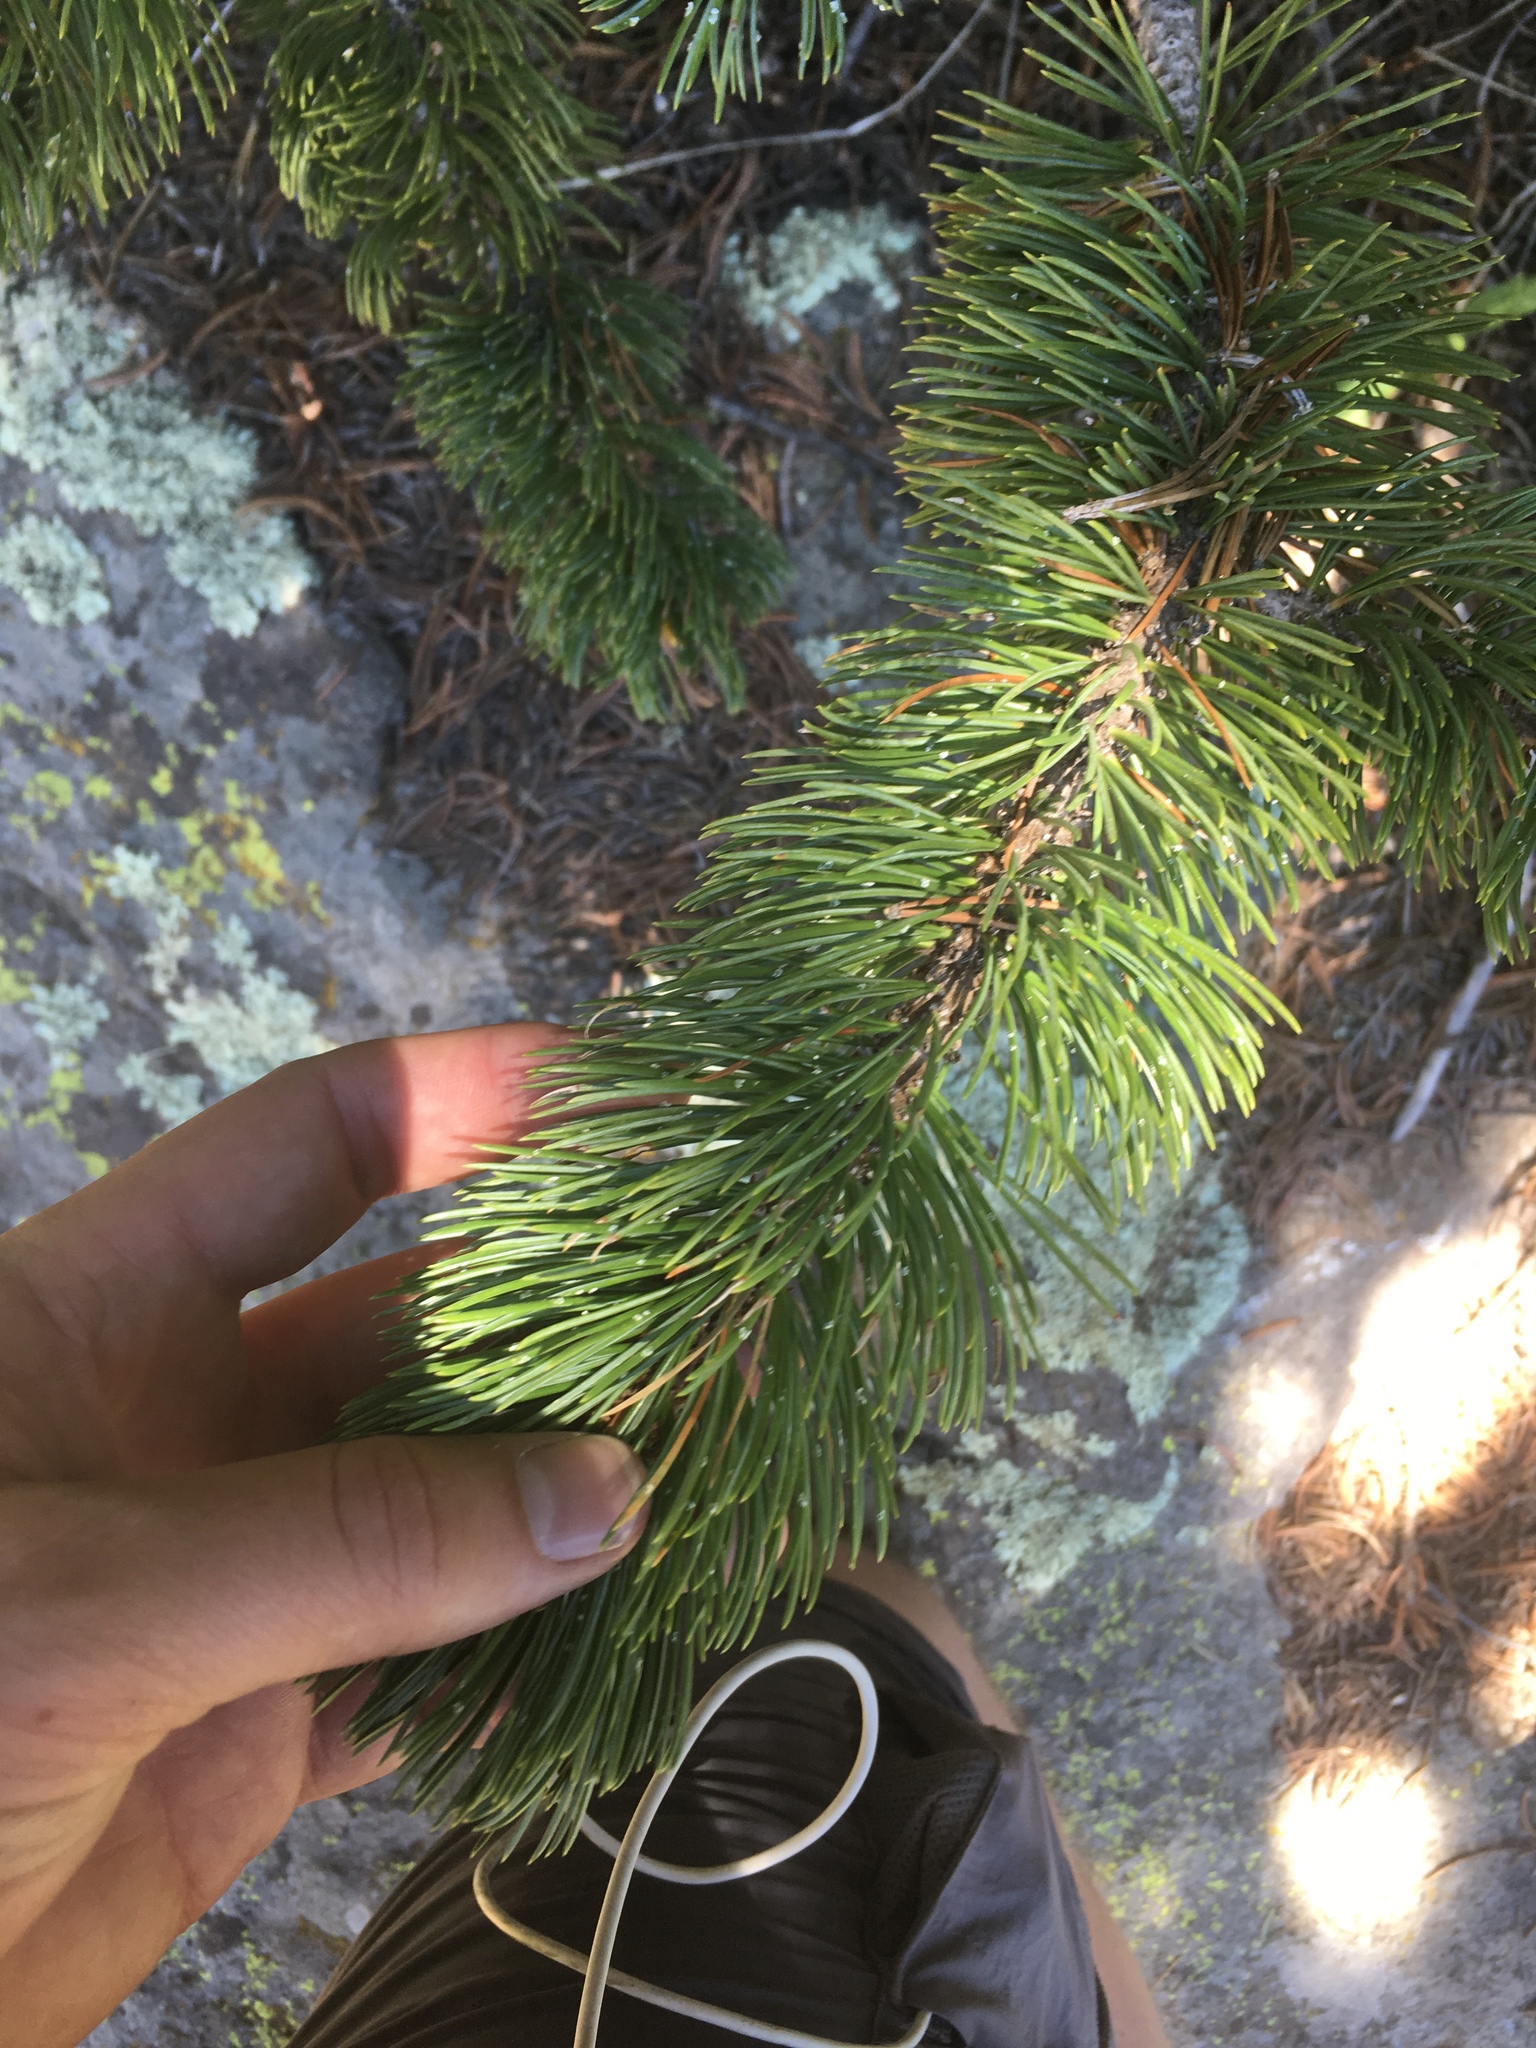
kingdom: Plantae
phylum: Tracheophyta
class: Pinopsida
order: Pinales
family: Pinaceae
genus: Pinus
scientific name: Pinus aristata
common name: Colorado bristlecone pine
